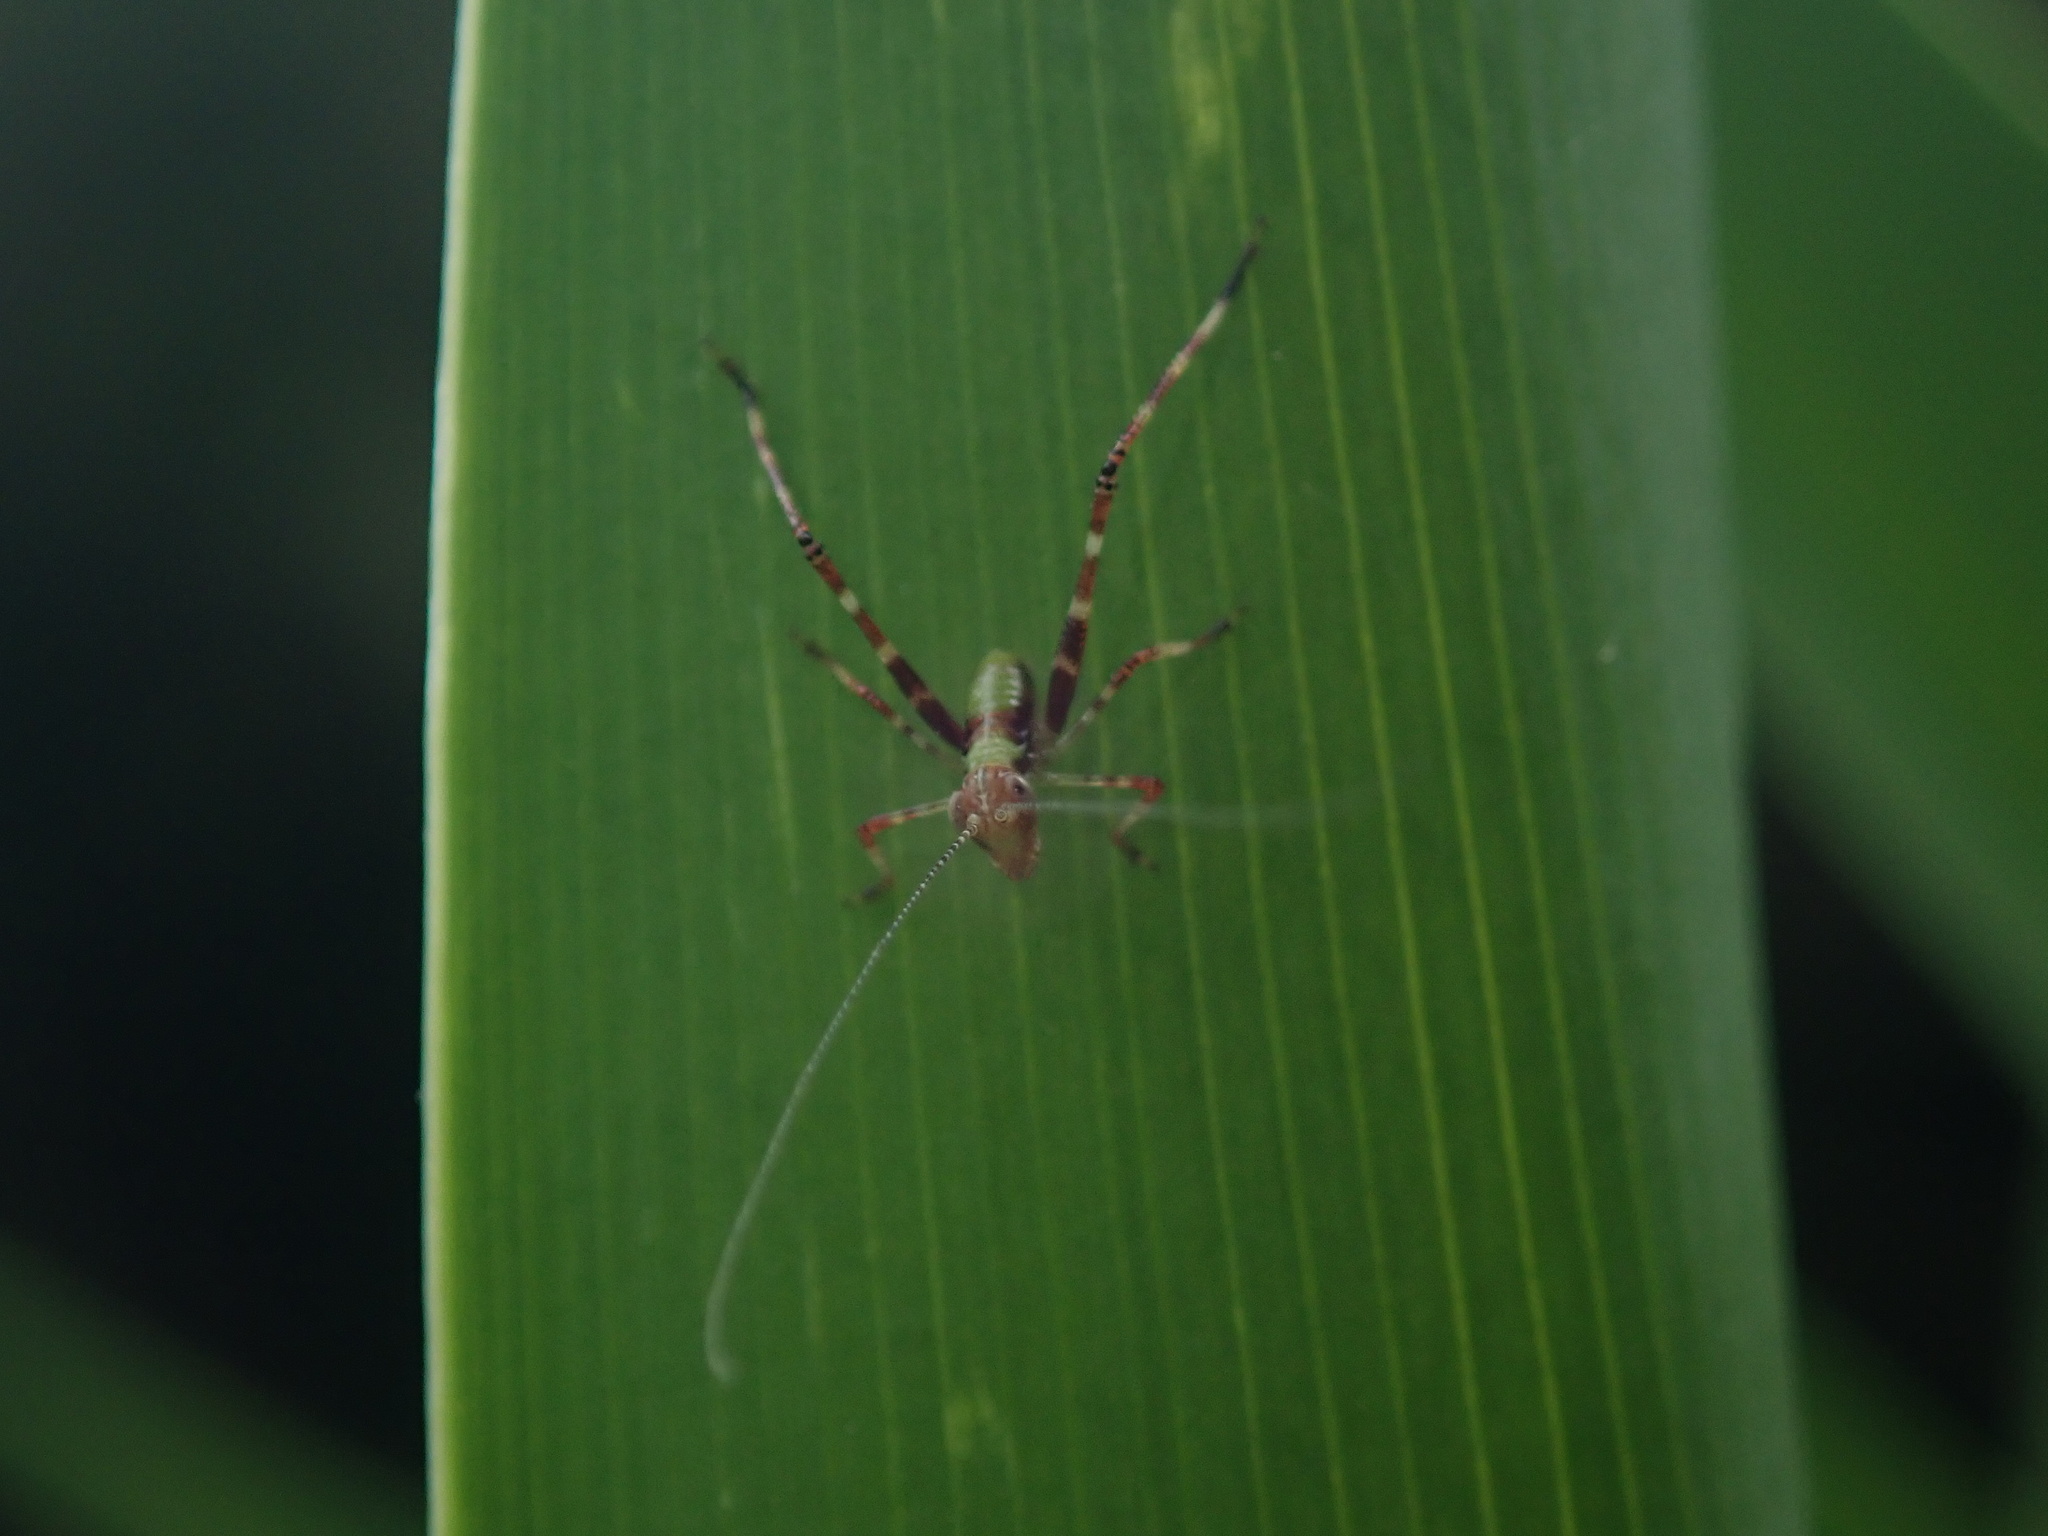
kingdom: Animalia
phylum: Arthropoda
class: Insecta
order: Orthoptera
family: Tettigoniidae
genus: Caedicia
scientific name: Caedicia simplex
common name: Common garden katydid
